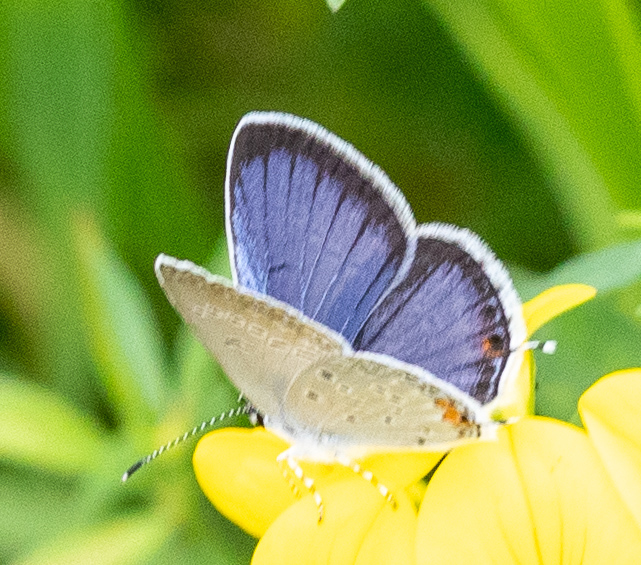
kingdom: Animalia
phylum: Arthropoda
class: Insecta
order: Lepidoptera
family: Lycaenidae
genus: Elkalyce
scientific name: Elkalyce comyntas
